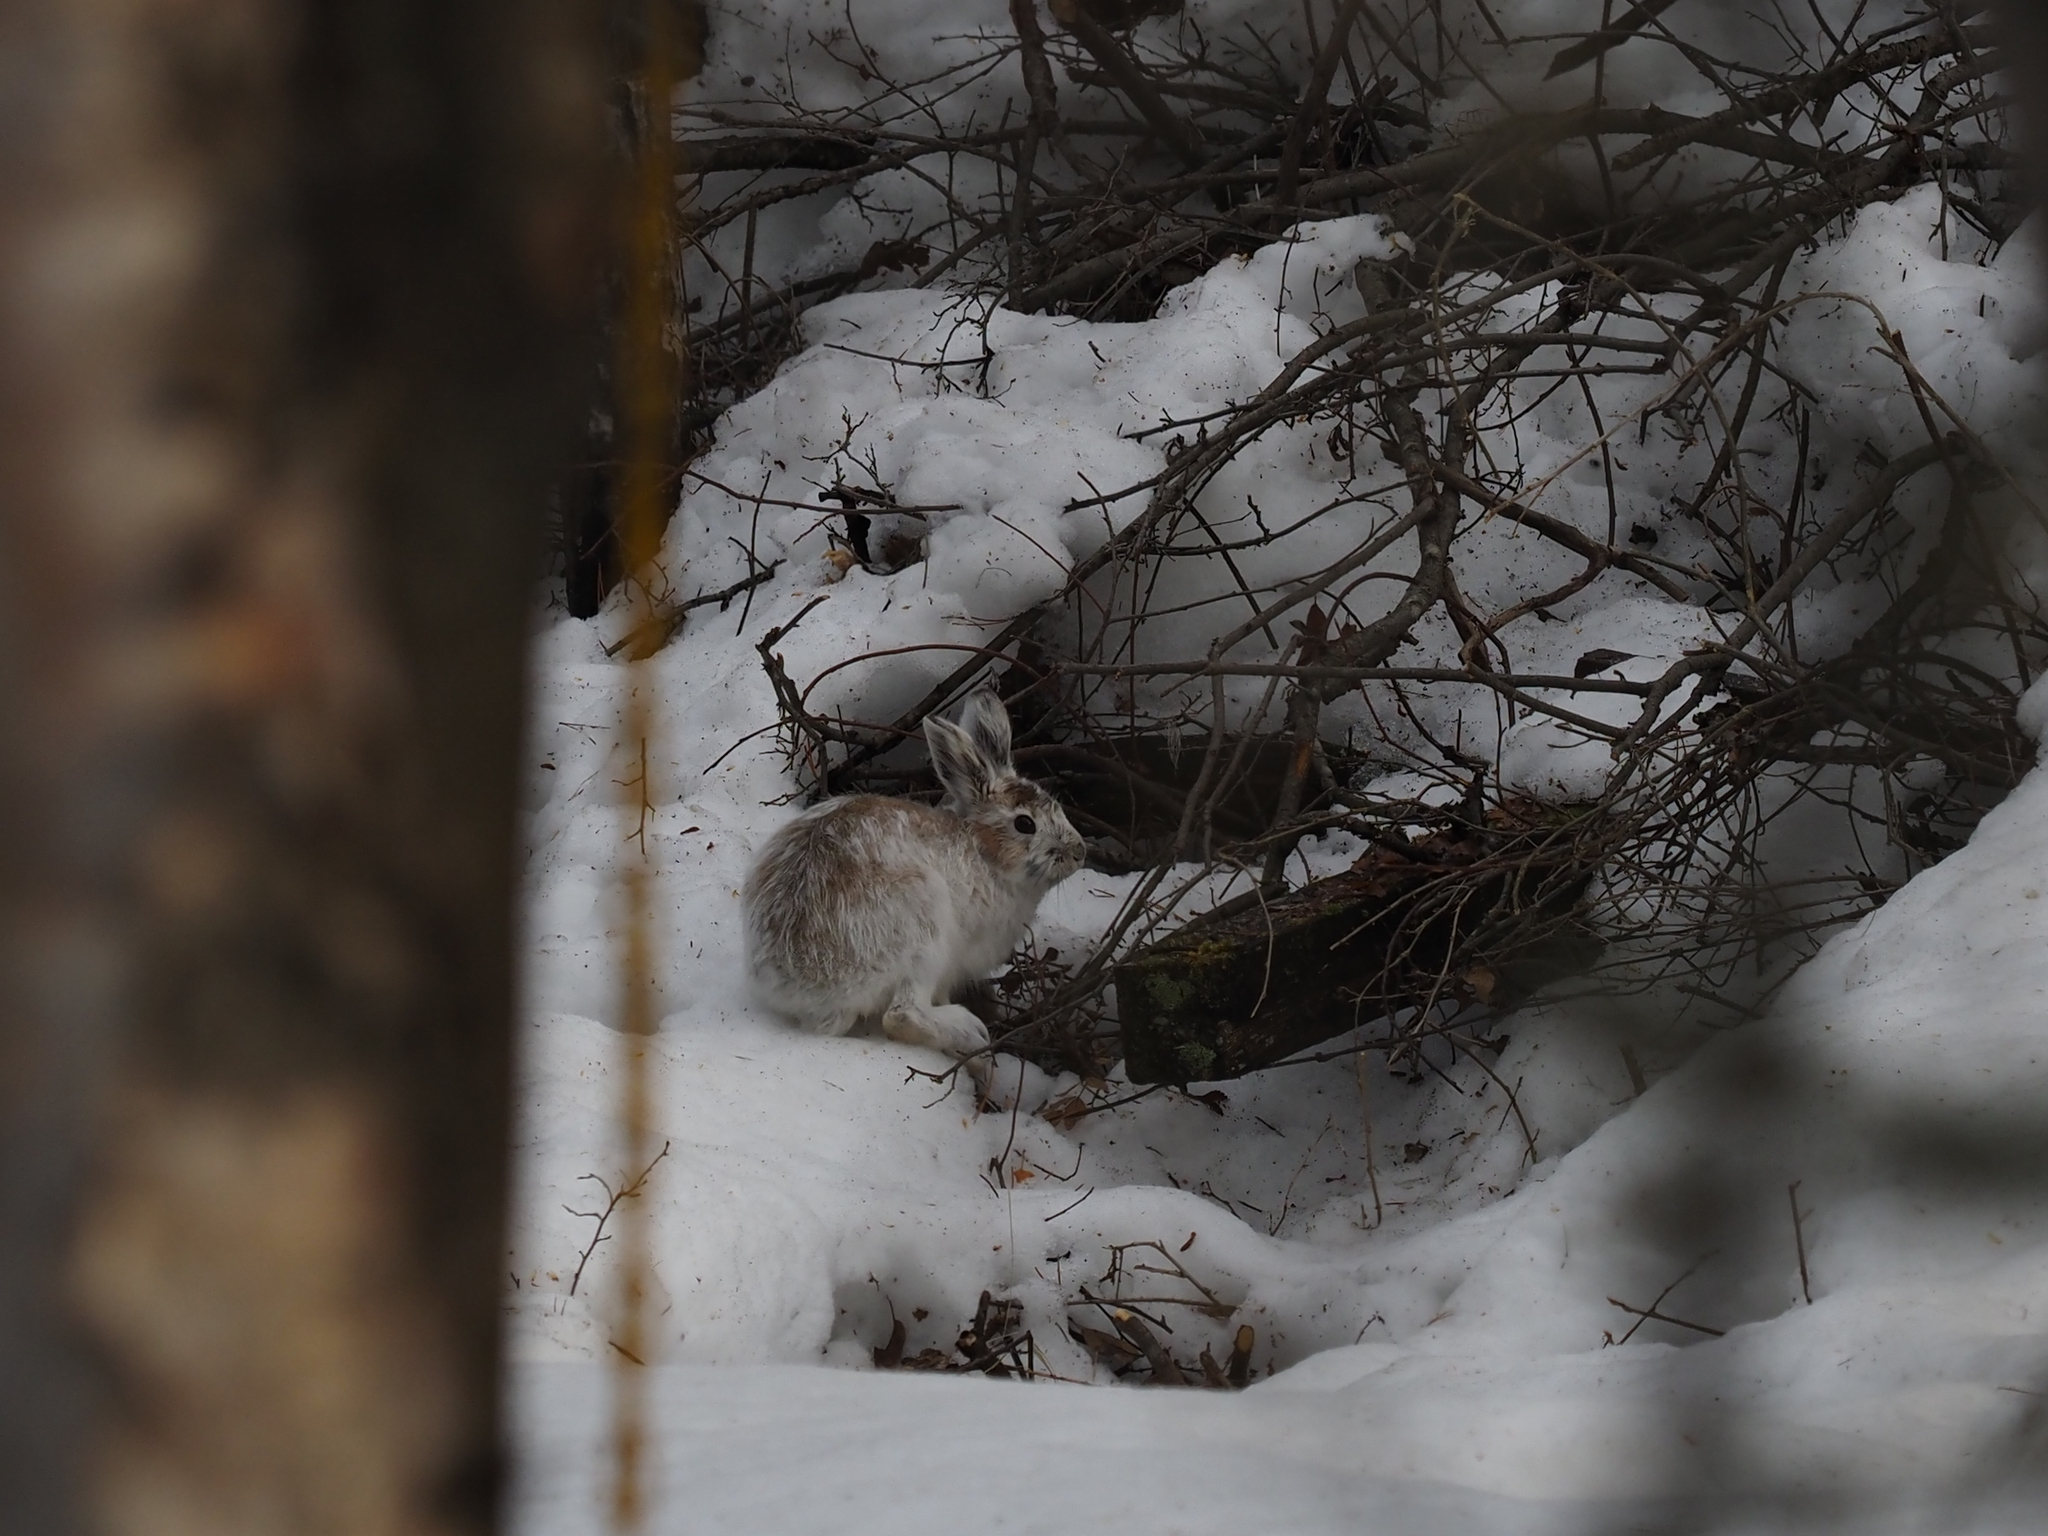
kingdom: Animalia
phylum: Chordata
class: Mammalia
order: Lagomorpha
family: Leporidae
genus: Lepus
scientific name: Lepus americanus
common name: Snowshoe hare
